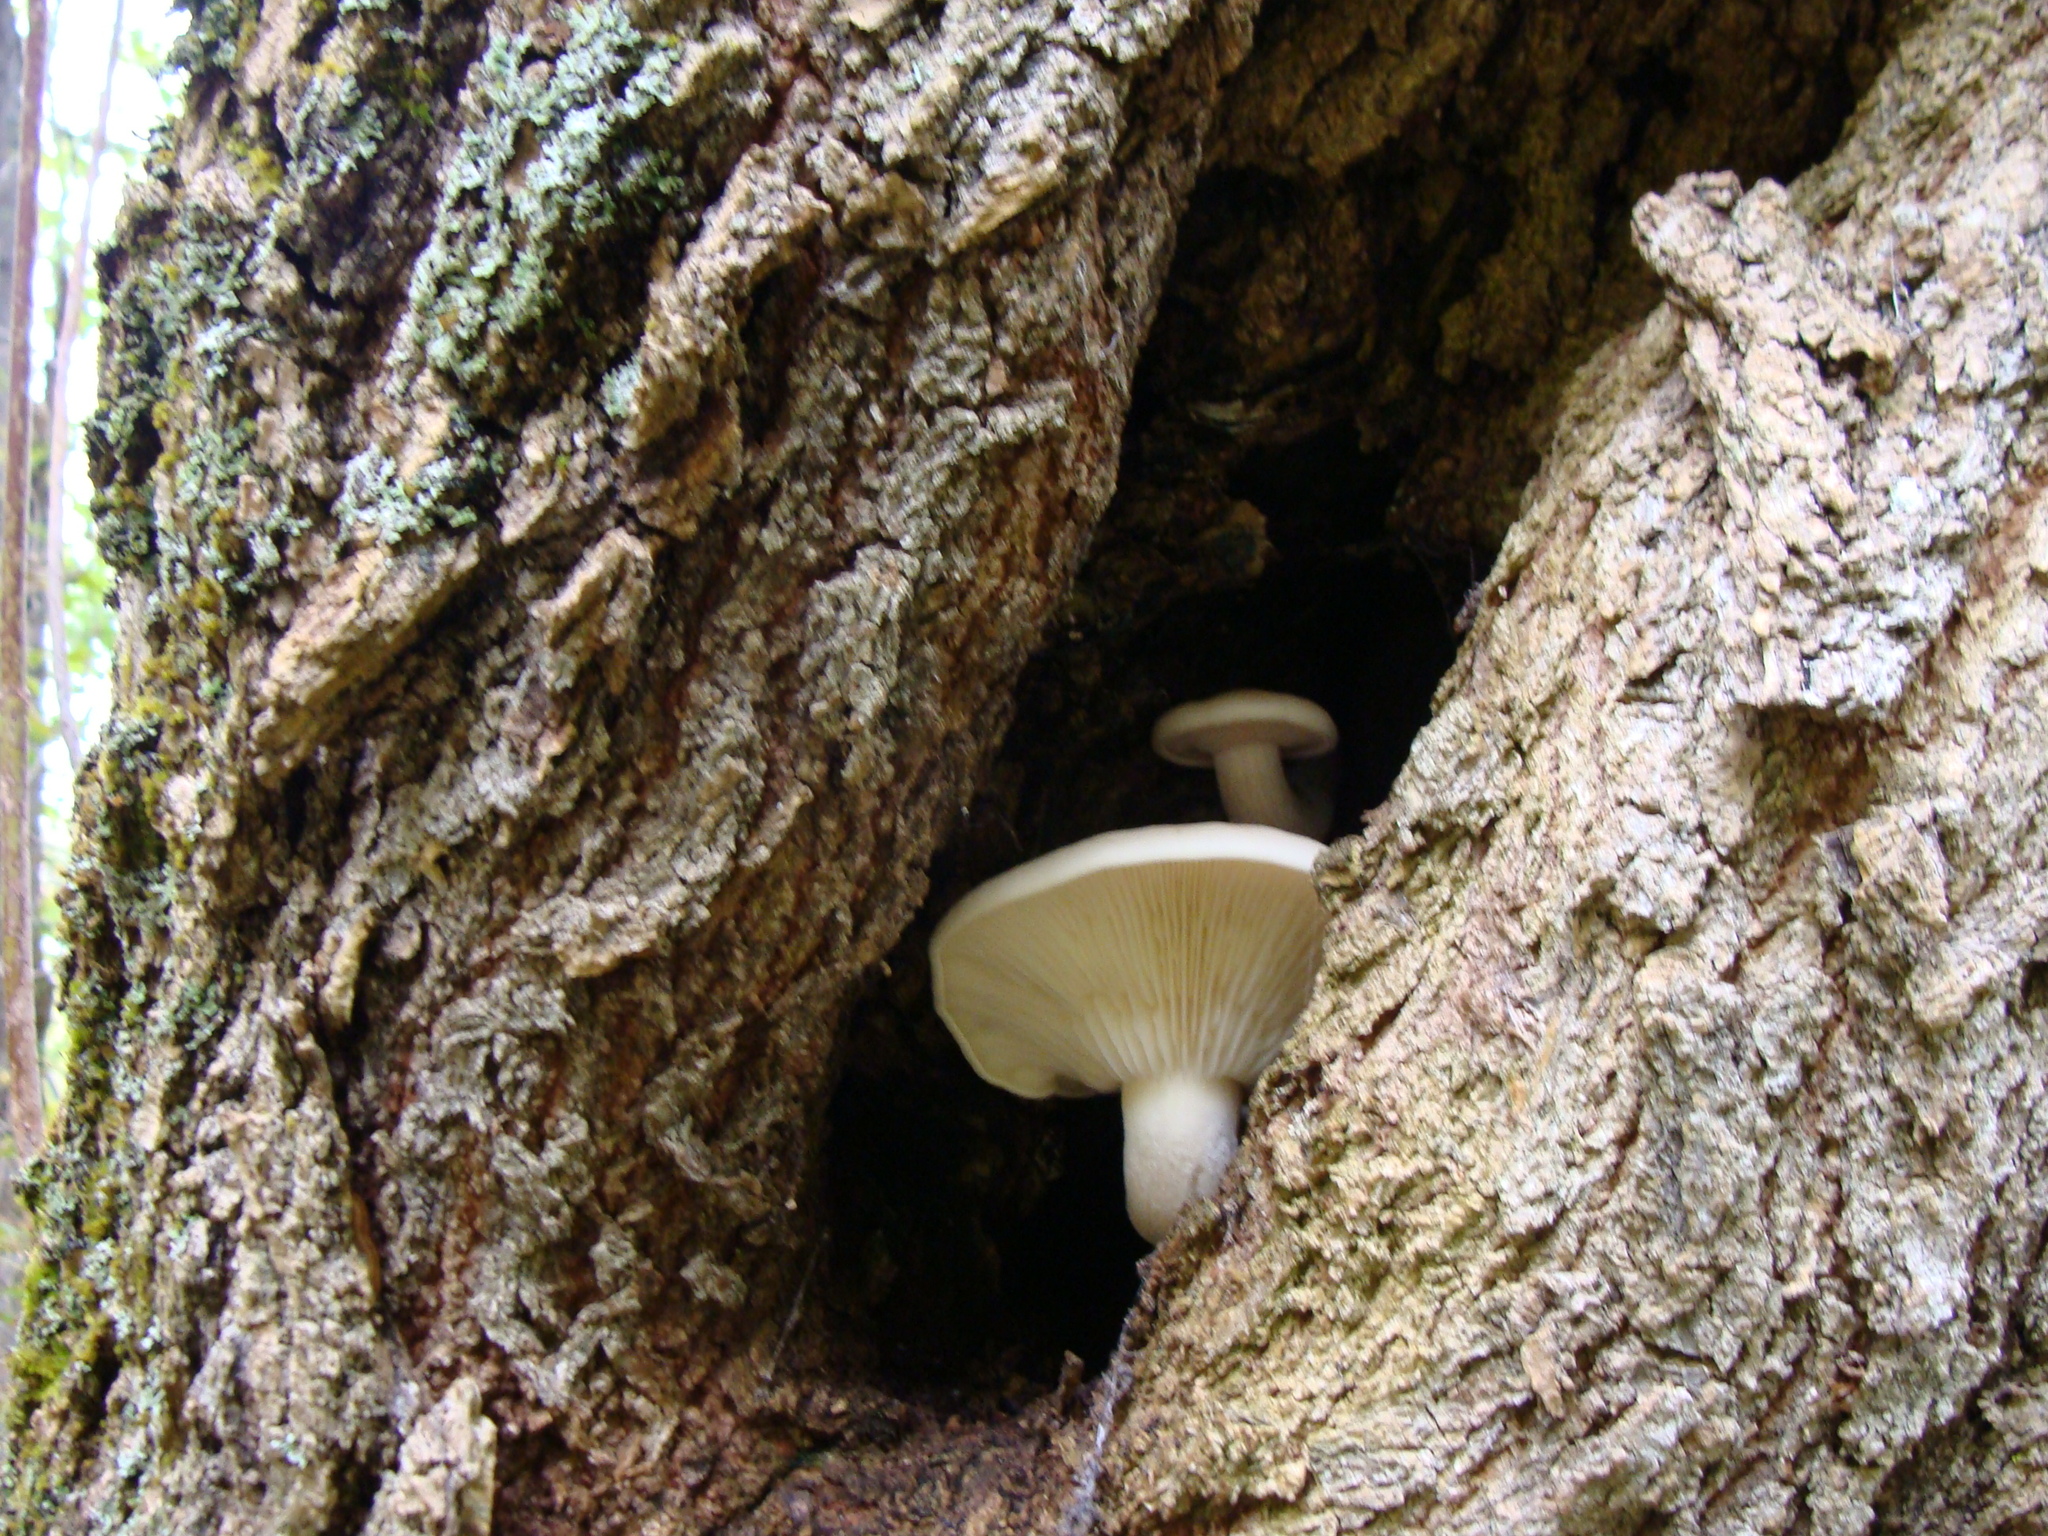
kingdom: Fungi
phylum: Basidiomycota
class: Agaricomycetes
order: Agaricales
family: Lyophyllaceae
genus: Hypsizygus
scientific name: Hypsizygus ulmarius
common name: Elm leech
